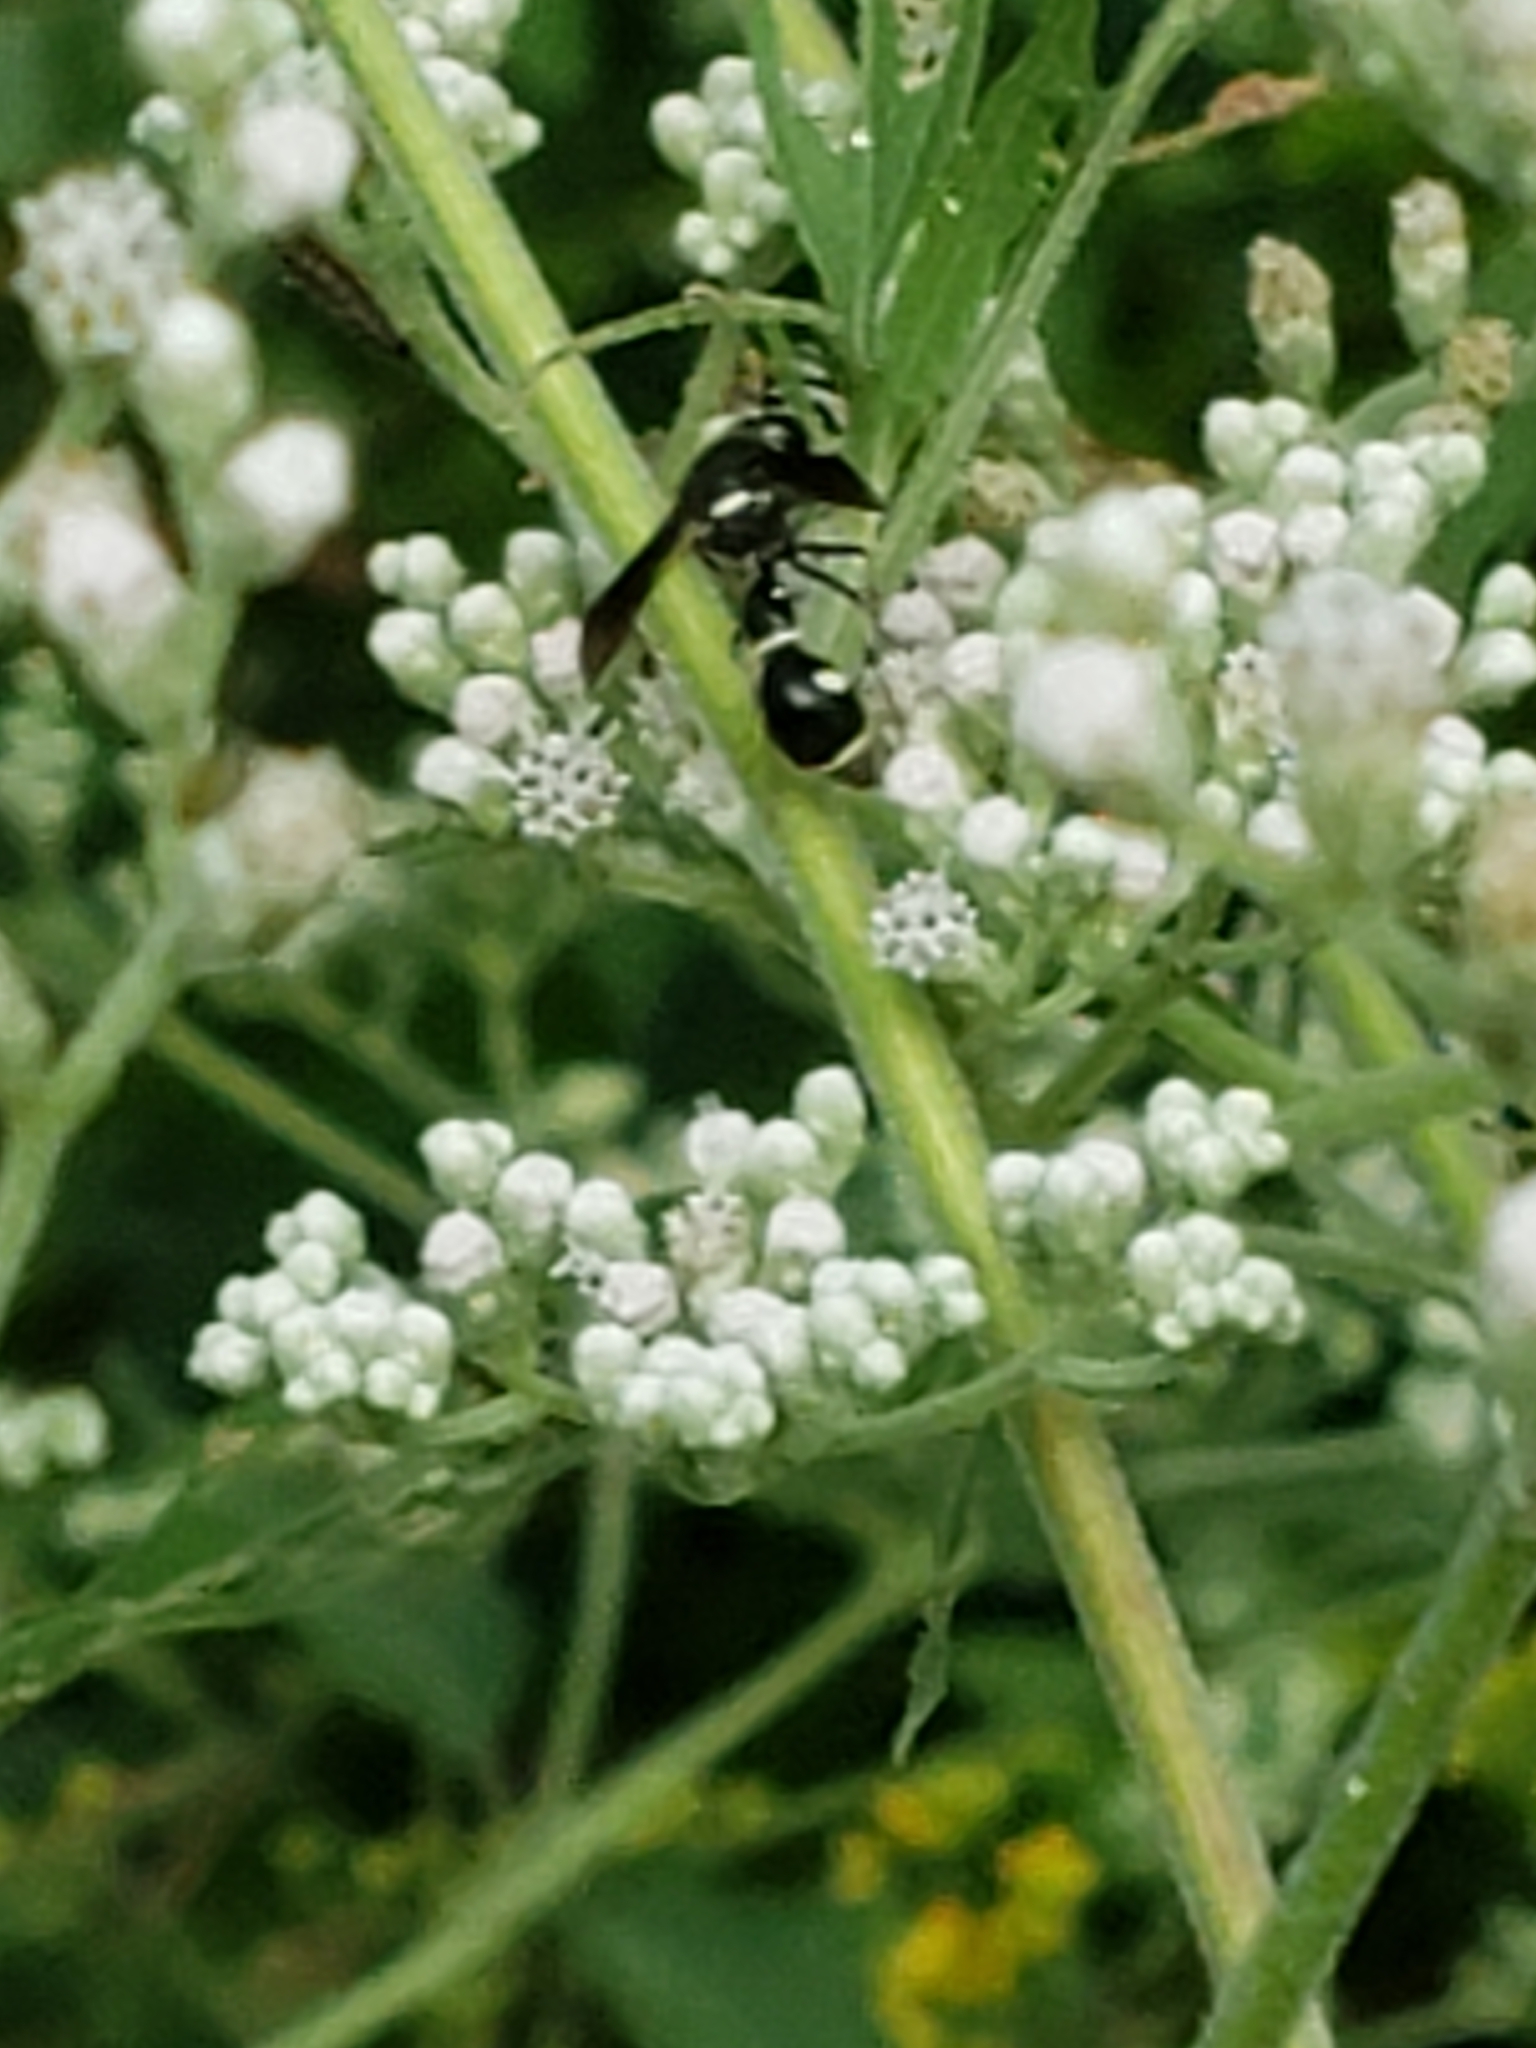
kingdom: Animalia
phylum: Arthropoda
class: Insecta
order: Hymenoptera
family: Vespidae
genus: Eumenes
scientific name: Eumenes fraternus
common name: Fraternal potter wasp
